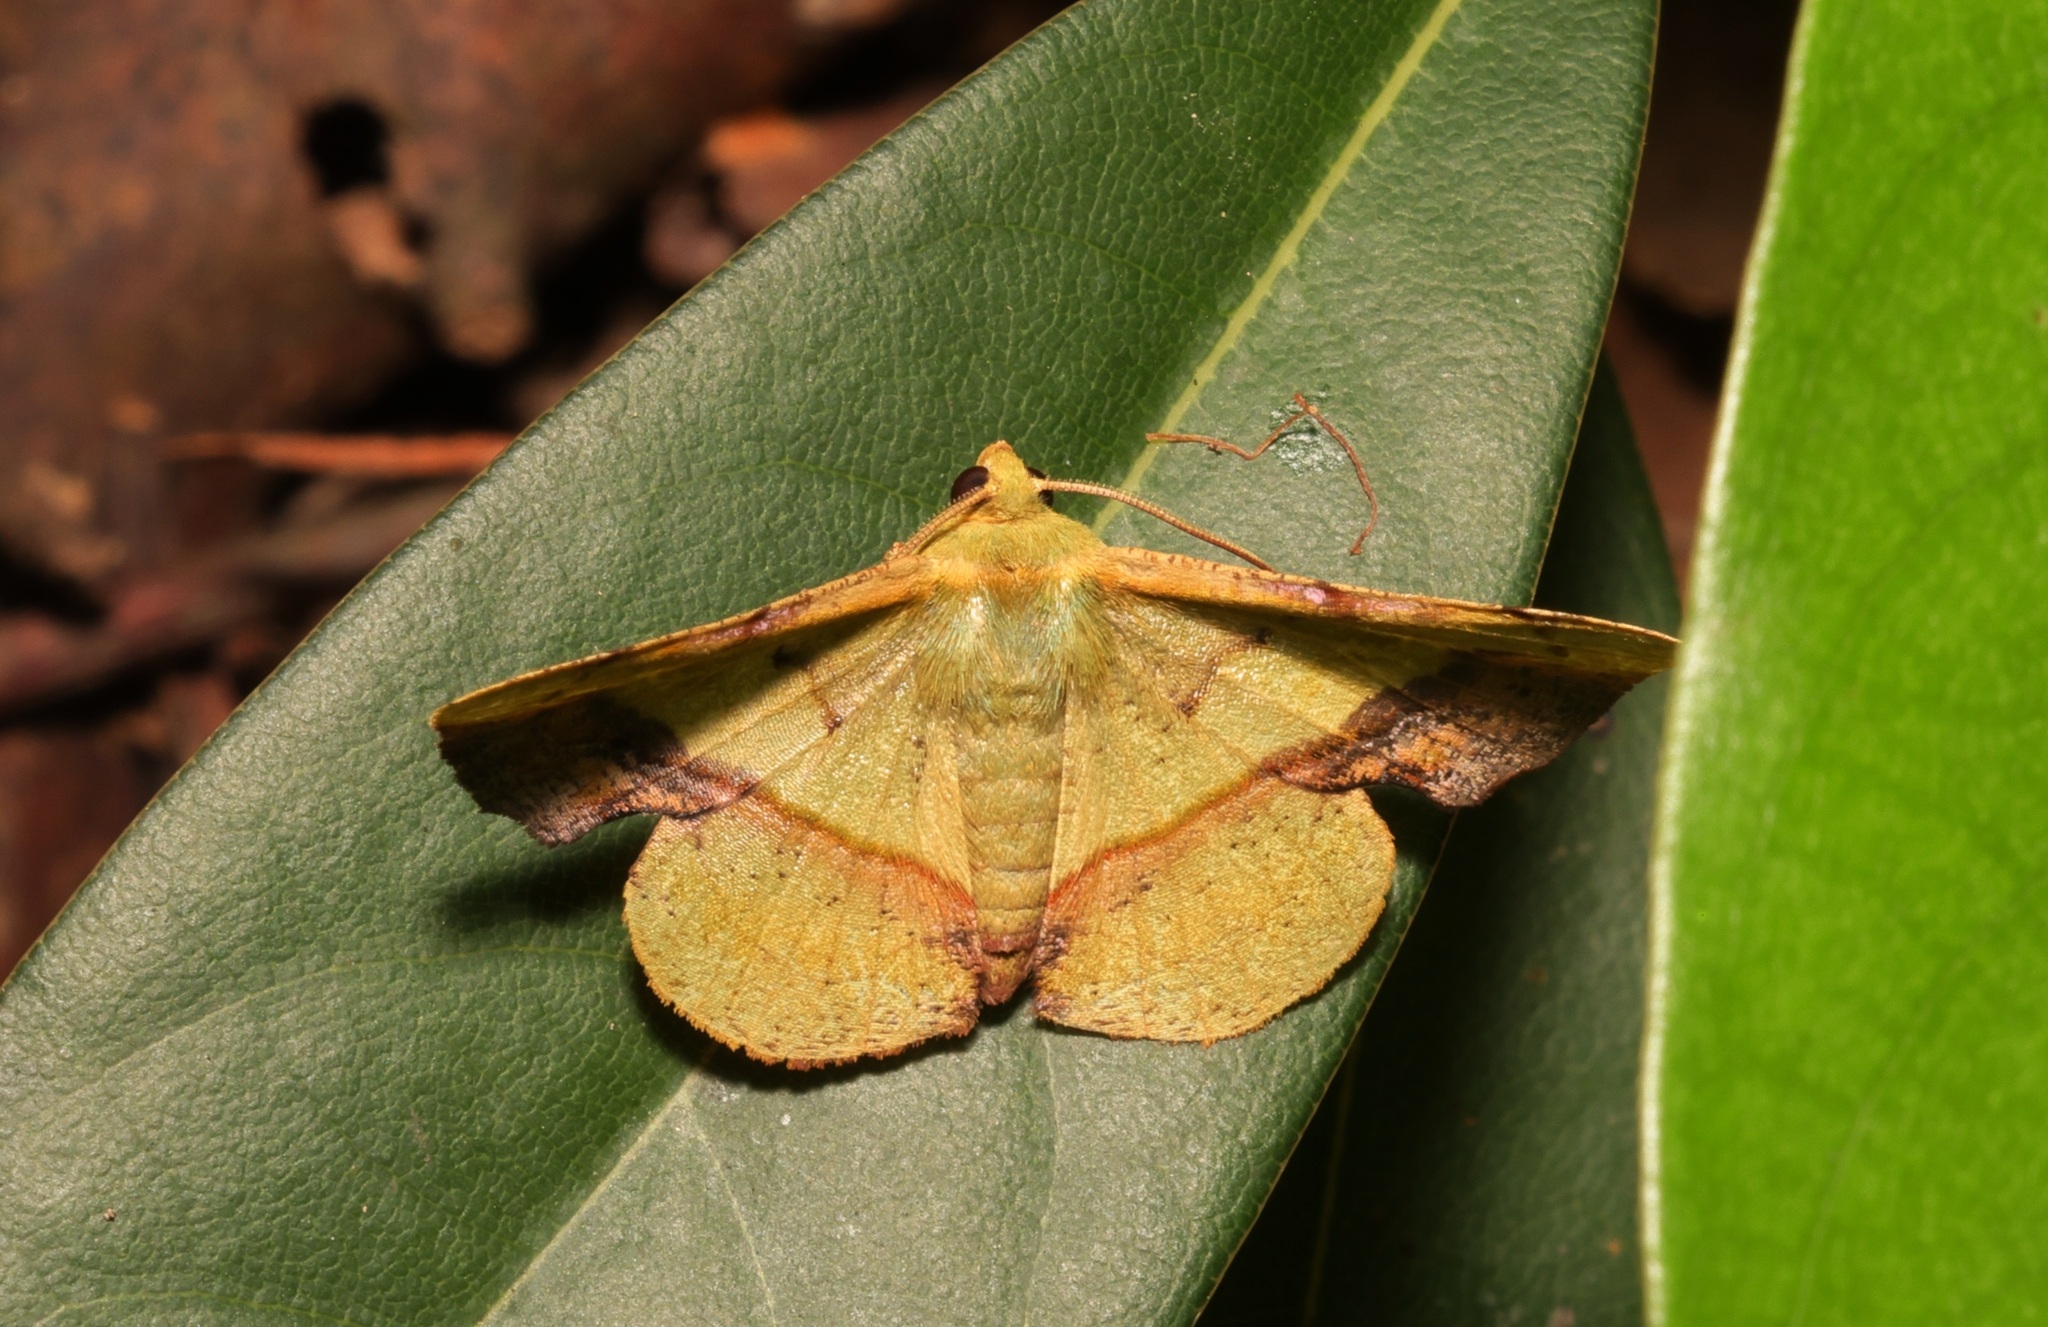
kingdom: Animalia
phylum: Arthropoda
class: Insecta
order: Lepidoptera
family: Geometridae
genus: Fascellina
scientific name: Fascellina plagiata
